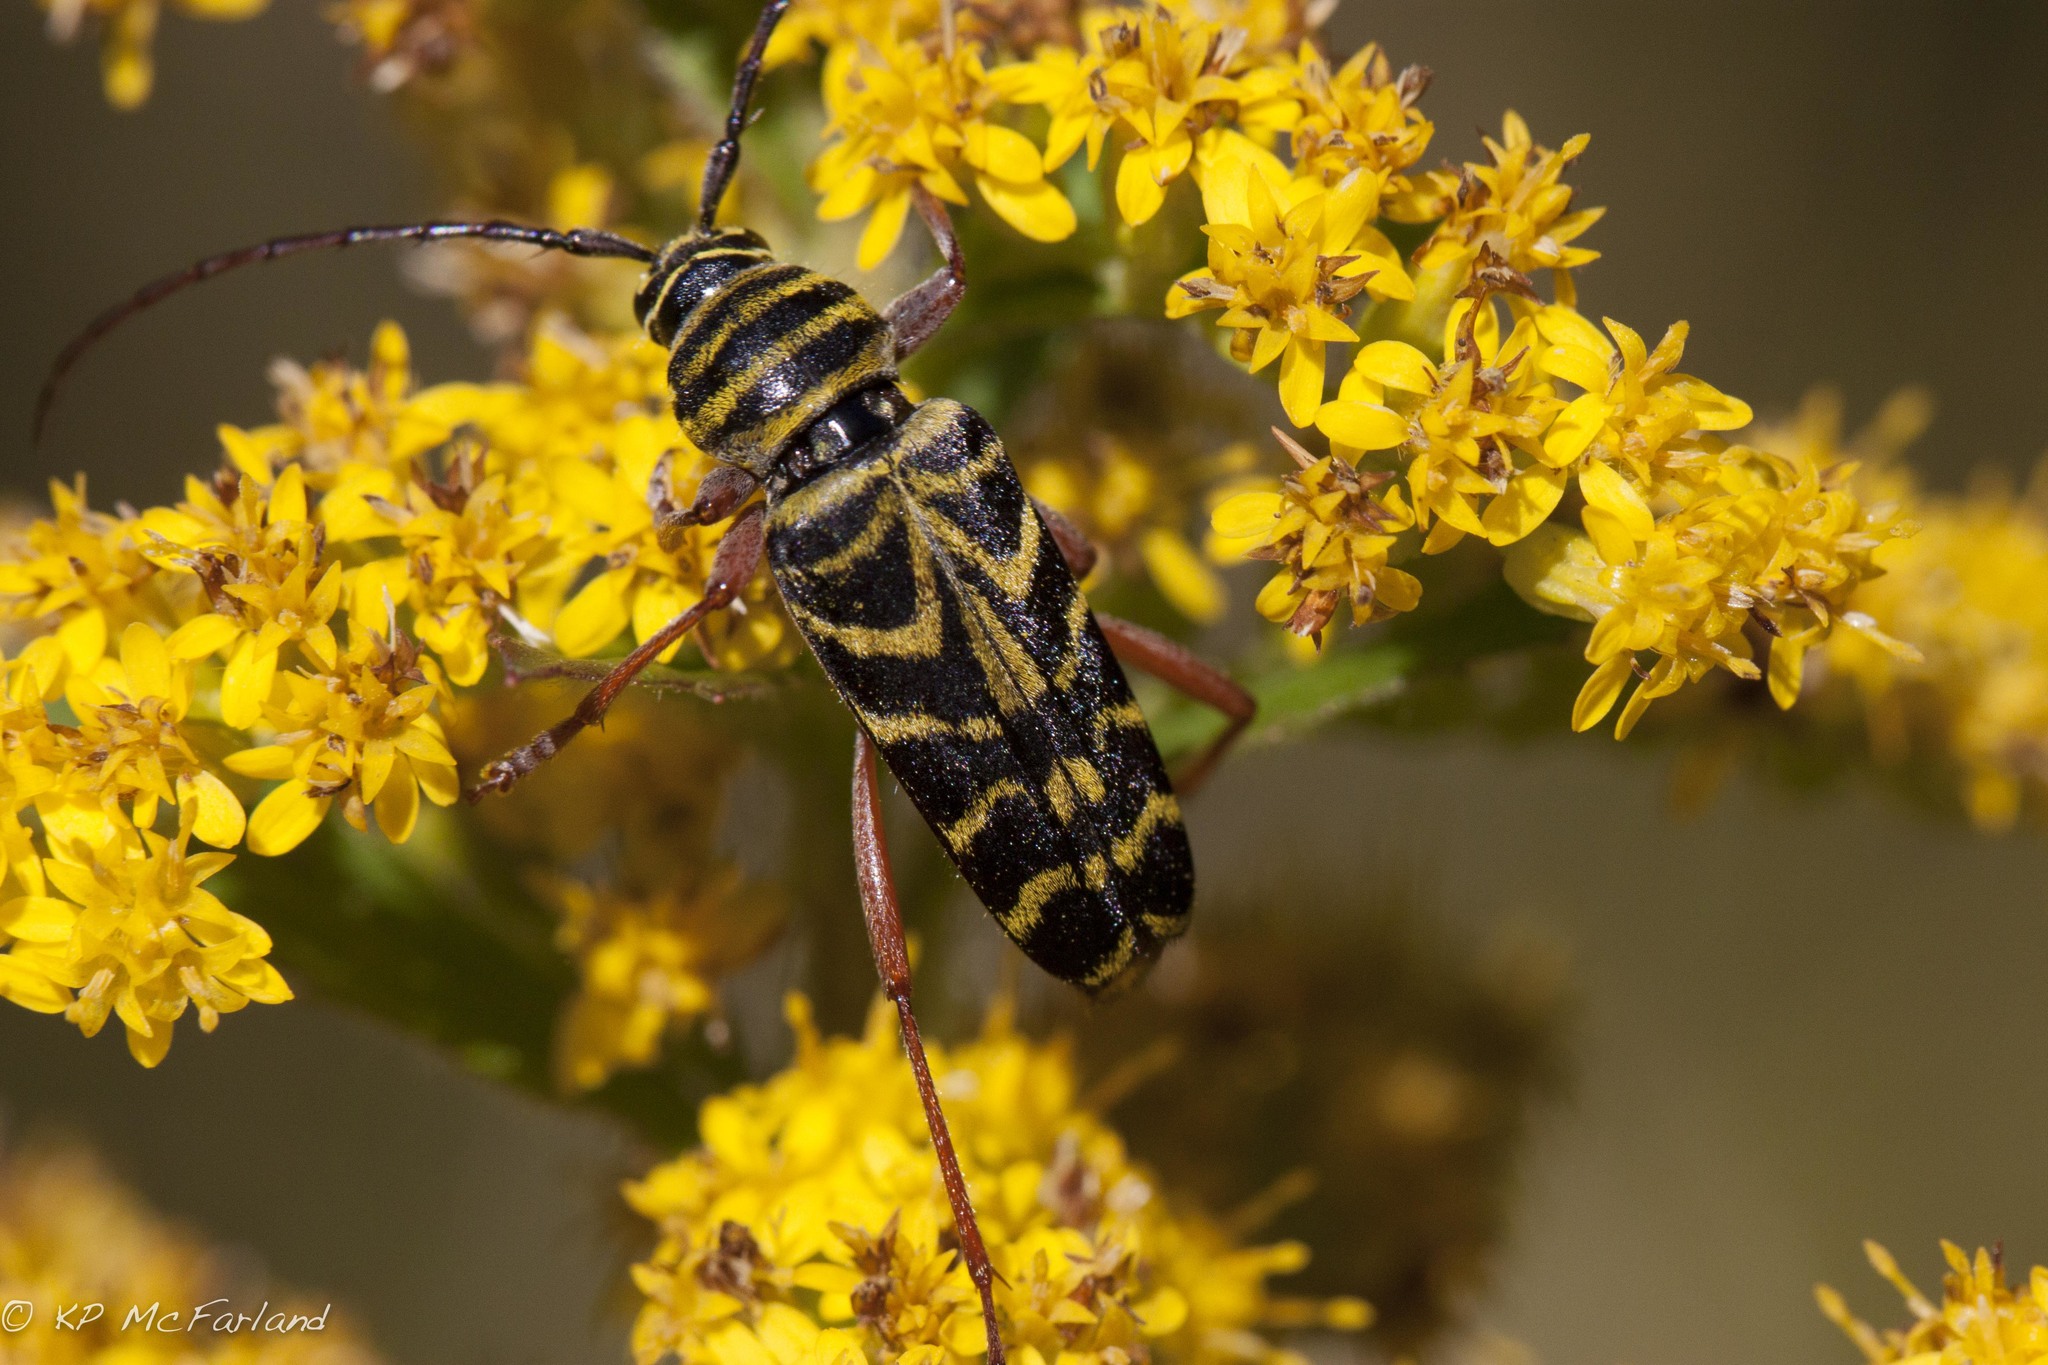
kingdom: Animalia
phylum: Arthropoda
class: Insecta
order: Coleoptera
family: Cerambycidae
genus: Megacyllene
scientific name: Megacyllene robiniae
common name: Locust borer
